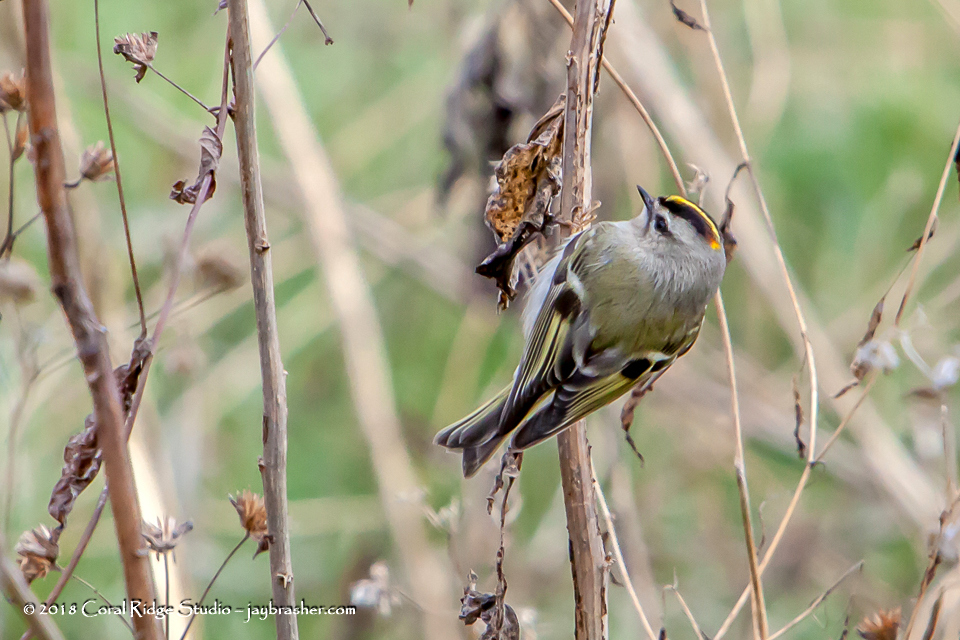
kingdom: Animalia
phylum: Chordata
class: Aves
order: Passeriformes
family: Regulidae
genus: Regulus
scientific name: Regulus satrapa
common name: Golden-crowned kinglet
